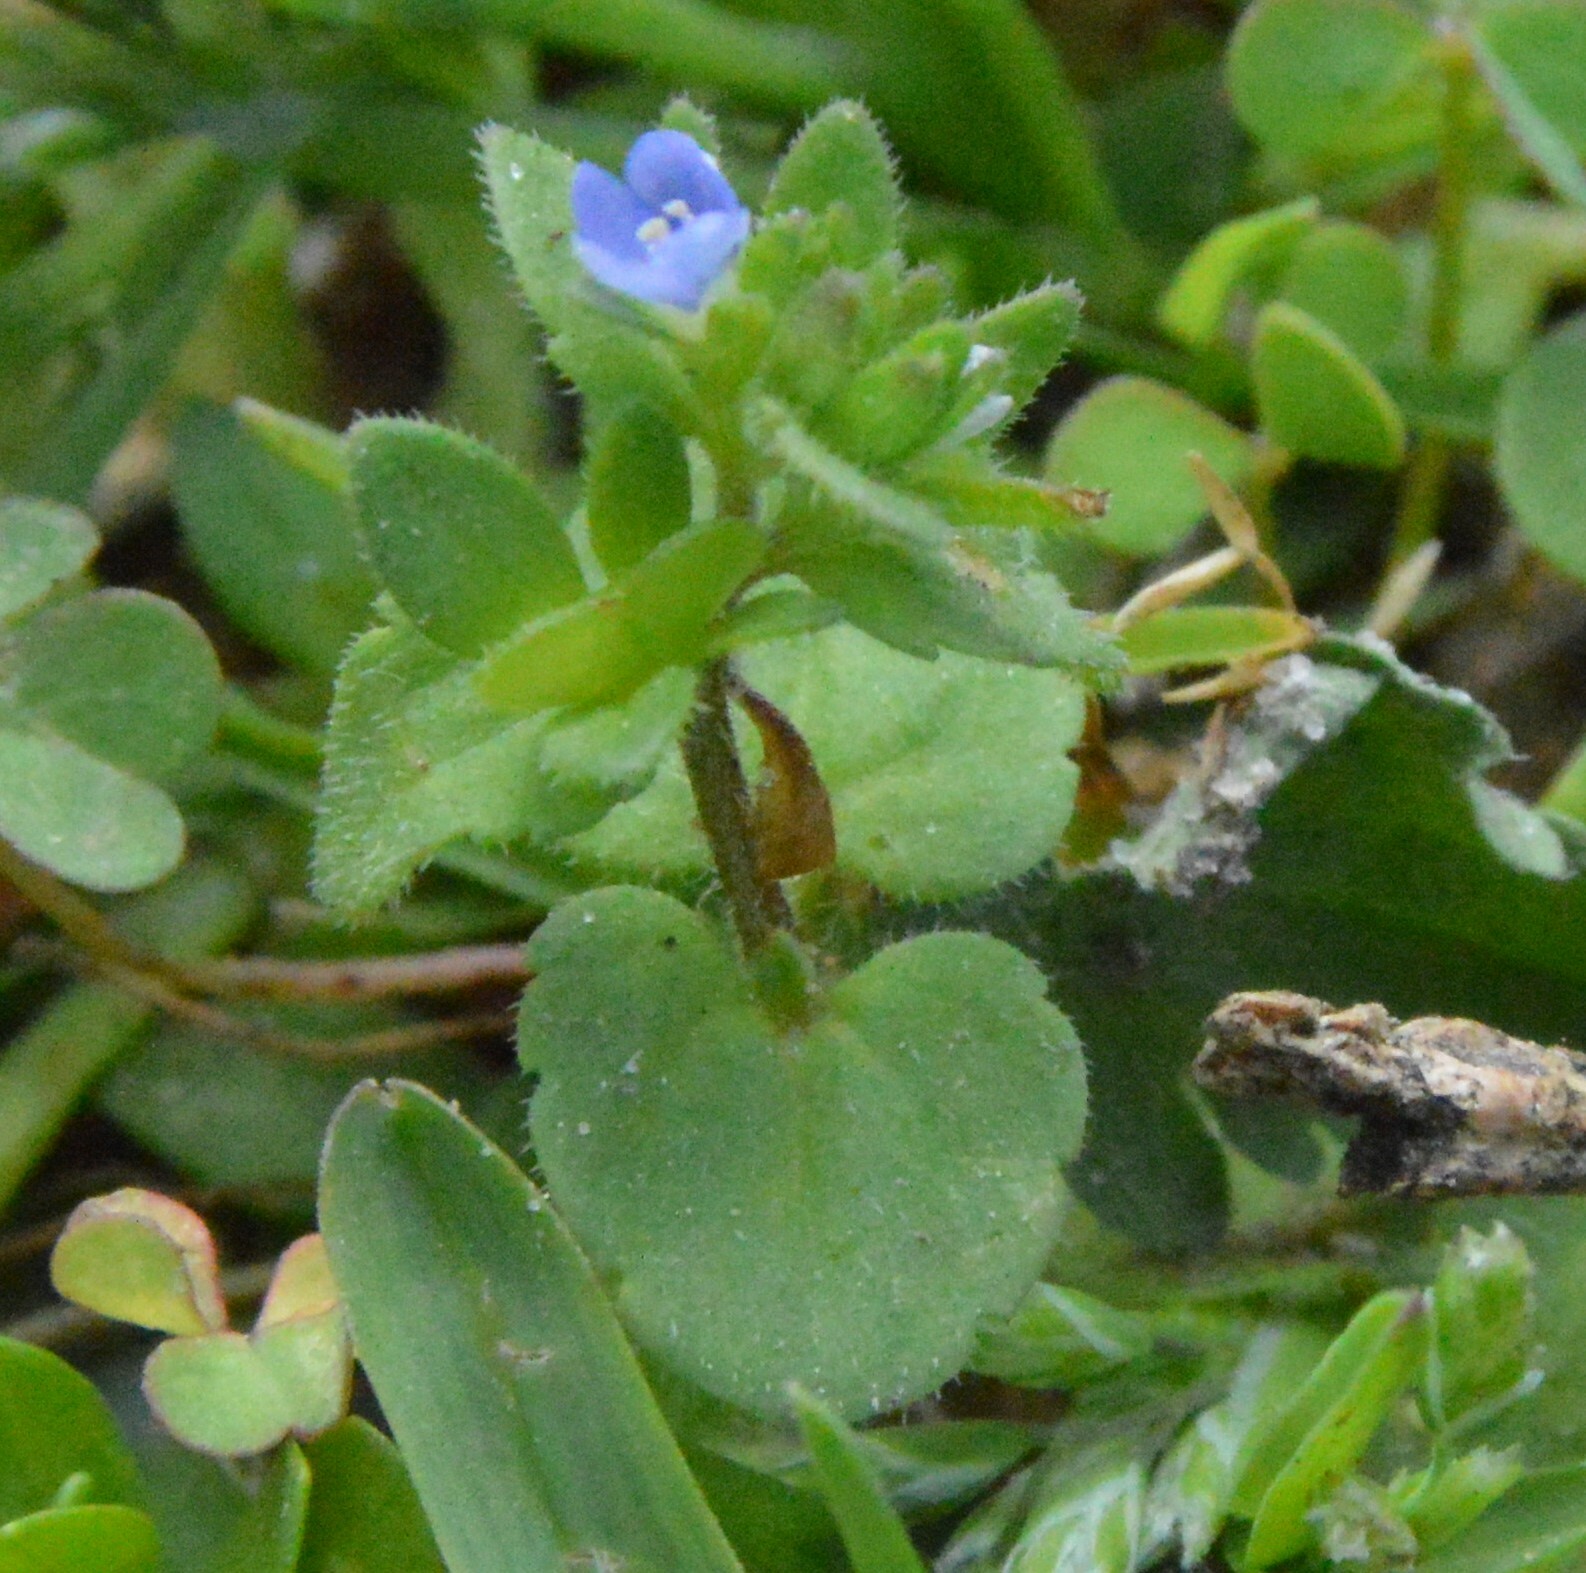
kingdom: Plantae
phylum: Tracheophyta
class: Magnoliopsida
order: Lamiales
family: Plantaginaceae
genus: Veronica
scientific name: Veronica arvensis
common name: Corn speedwell
